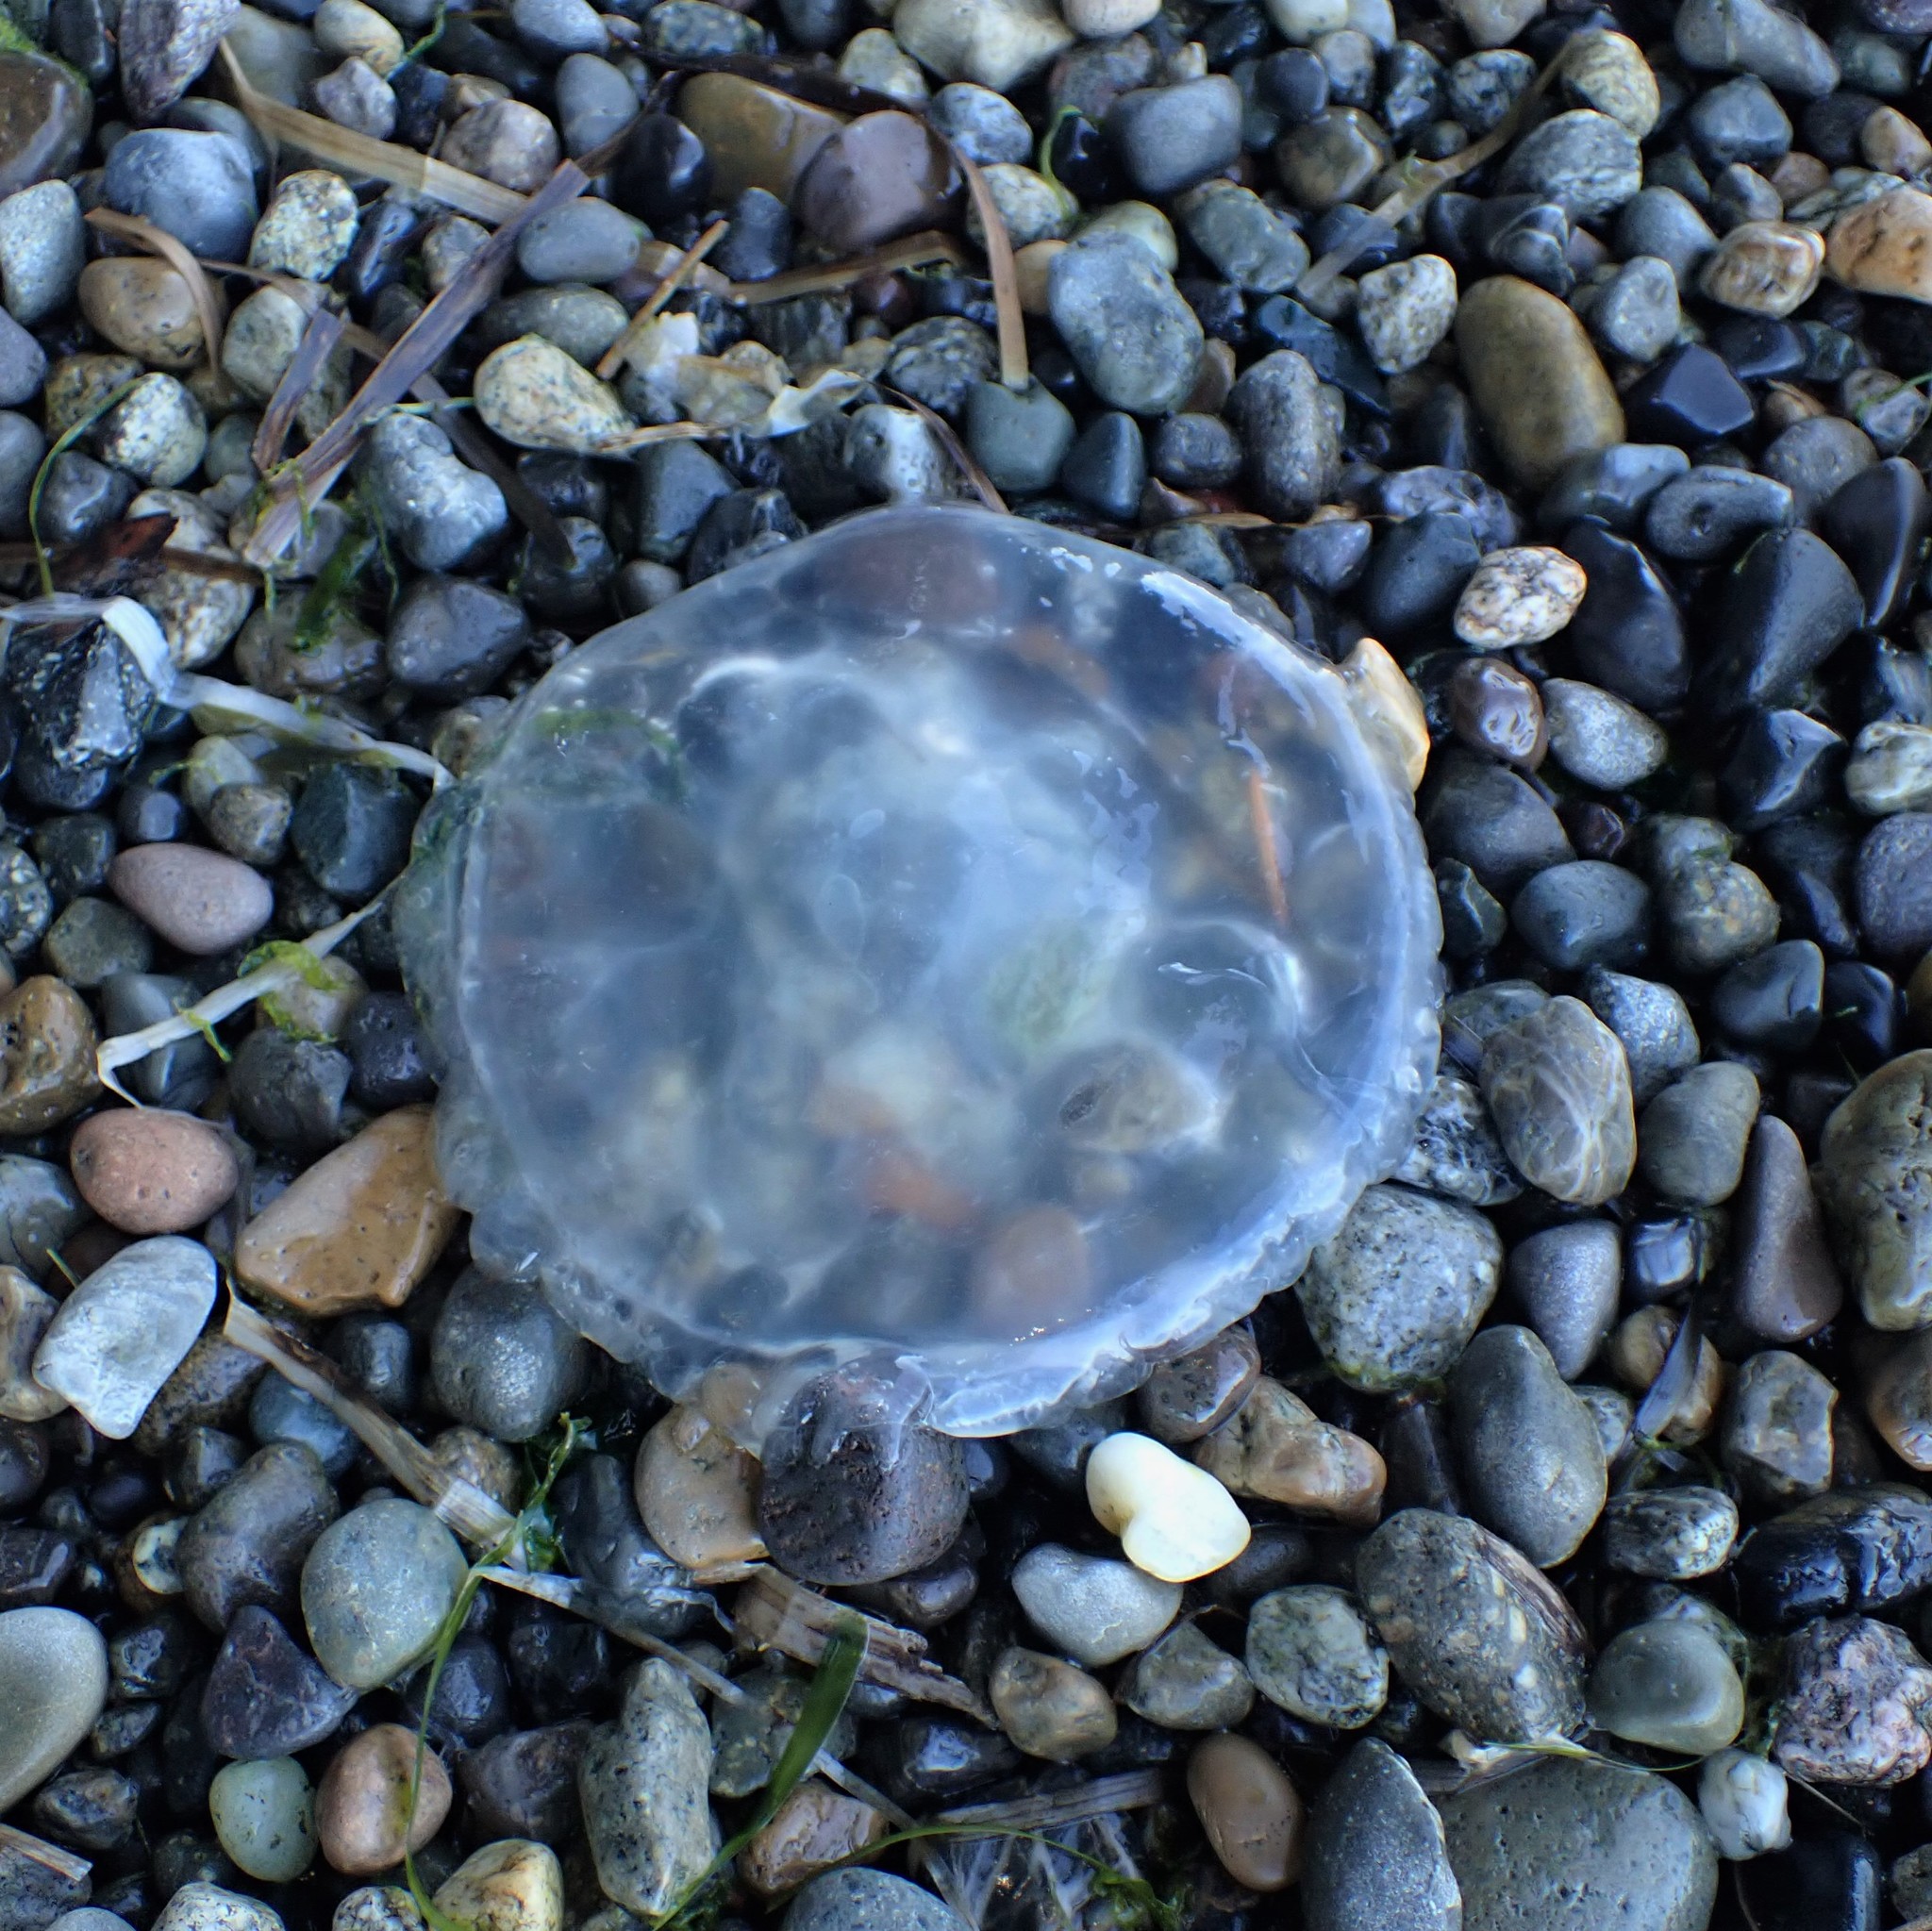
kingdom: Animalia
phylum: Cnidaria
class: Scyphozoa
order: Semaeostomeae
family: Phacellophoridae
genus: Phacellophora
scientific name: Phacellophora camtschatica
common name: Fried-egg jellyfish
